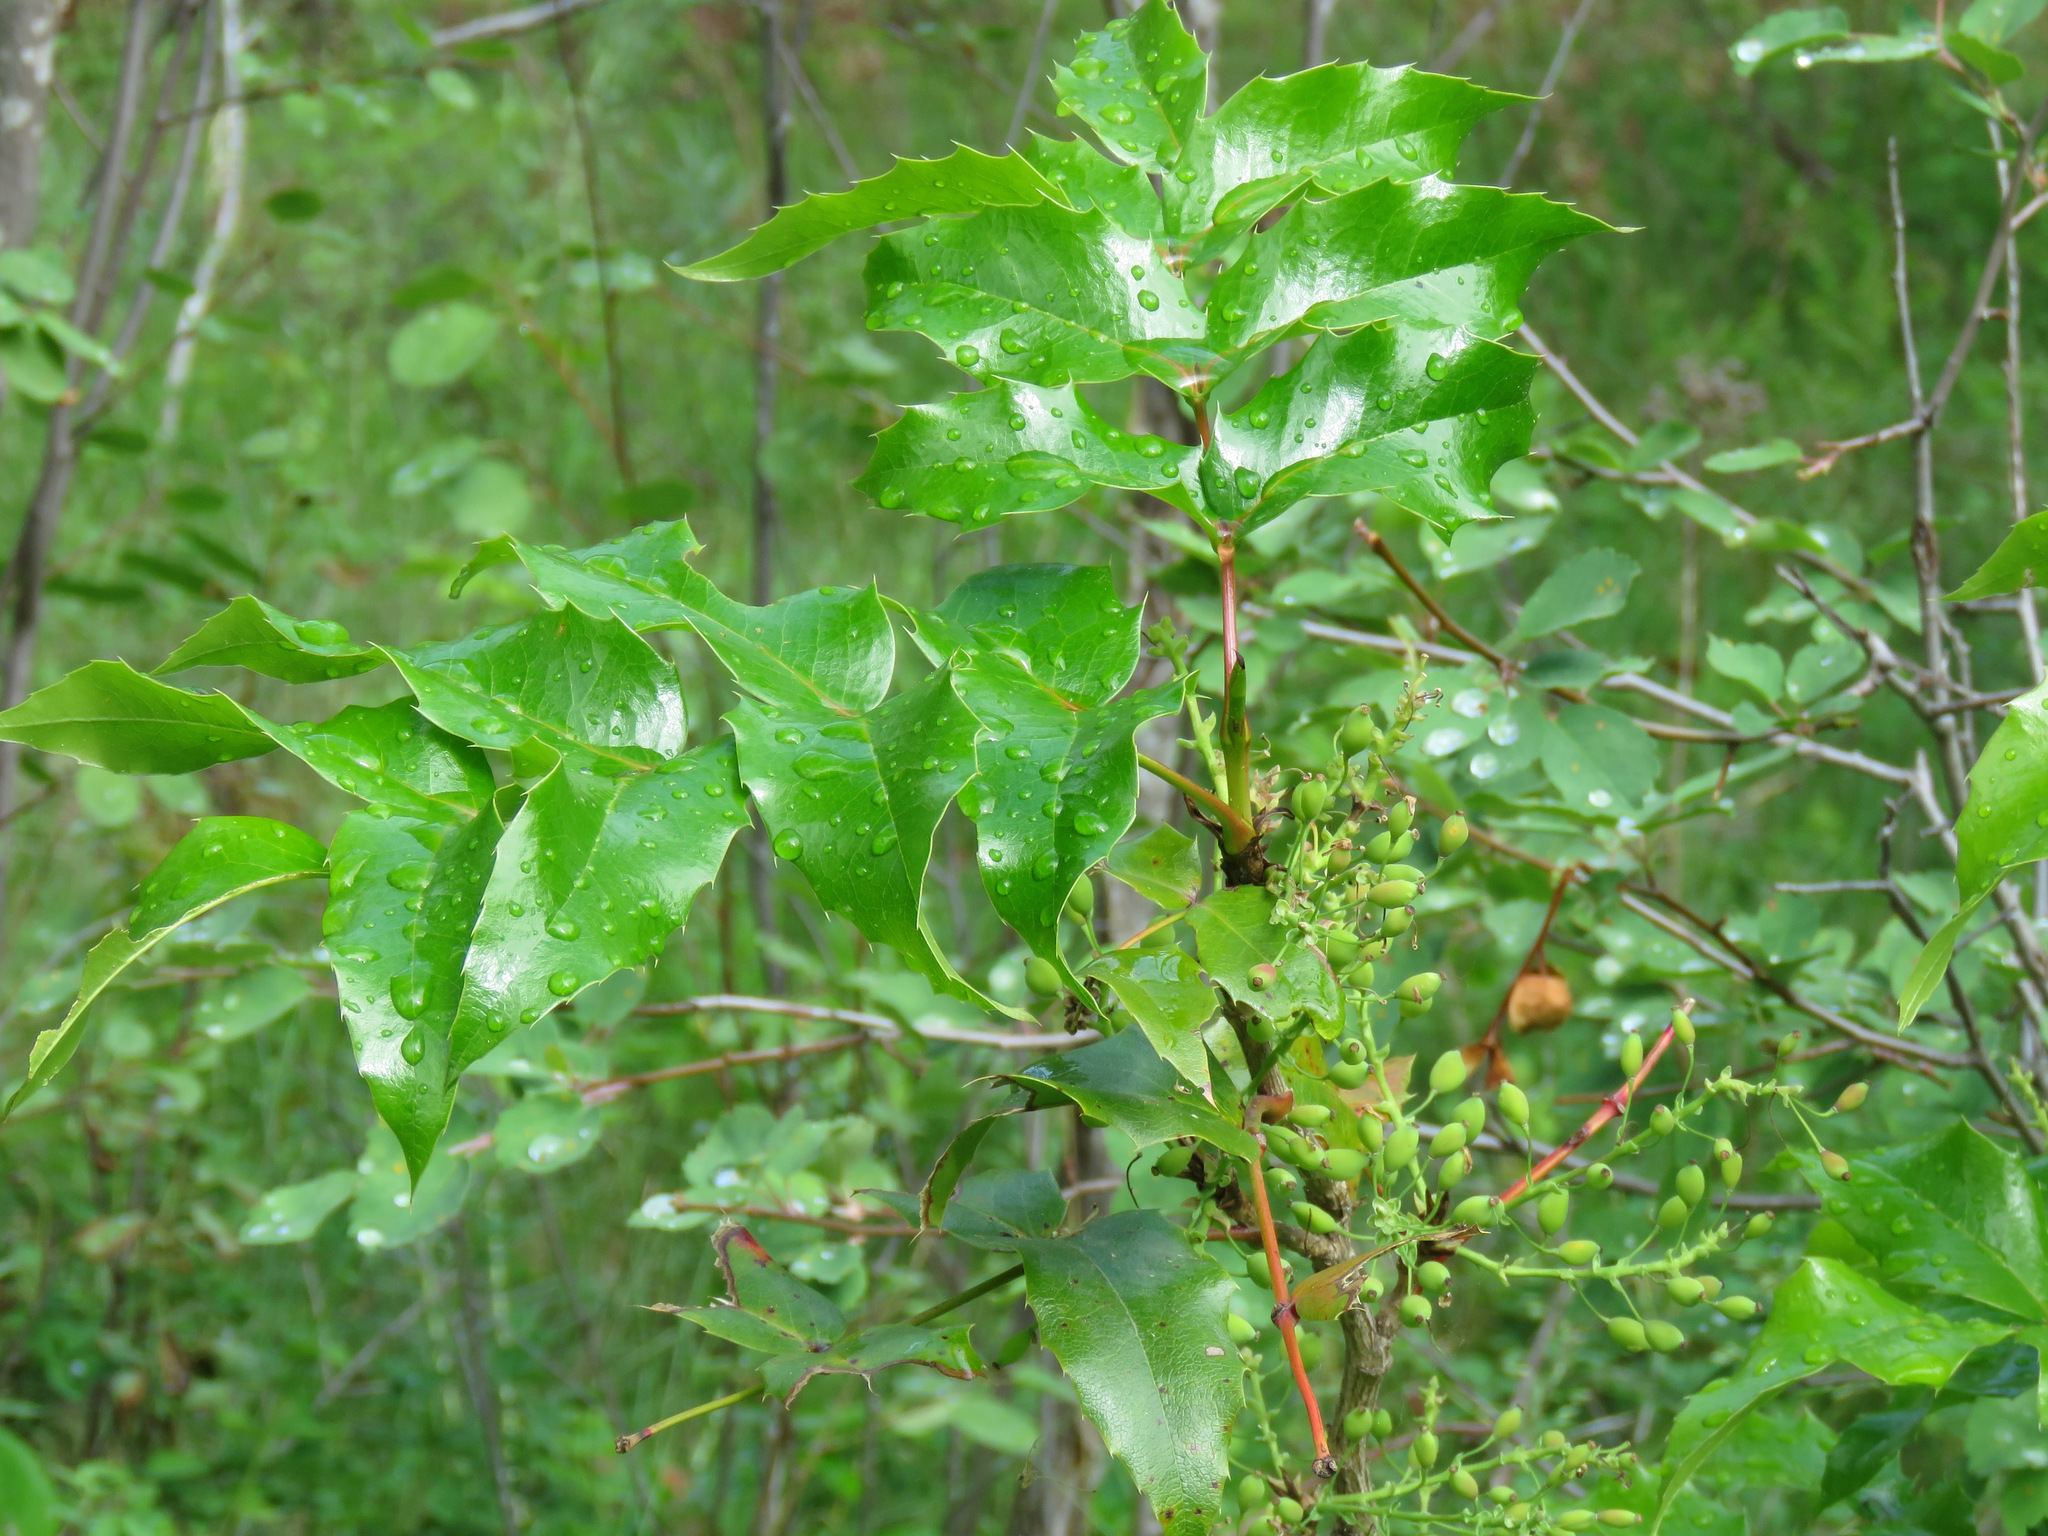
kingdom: Plantae
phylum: Tracheophyta
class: Magnoliopsida
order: Ranunculales
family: Berberidaceae
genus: Mahonia
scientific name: Mahonia aquifolium
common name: Oregon-grape
